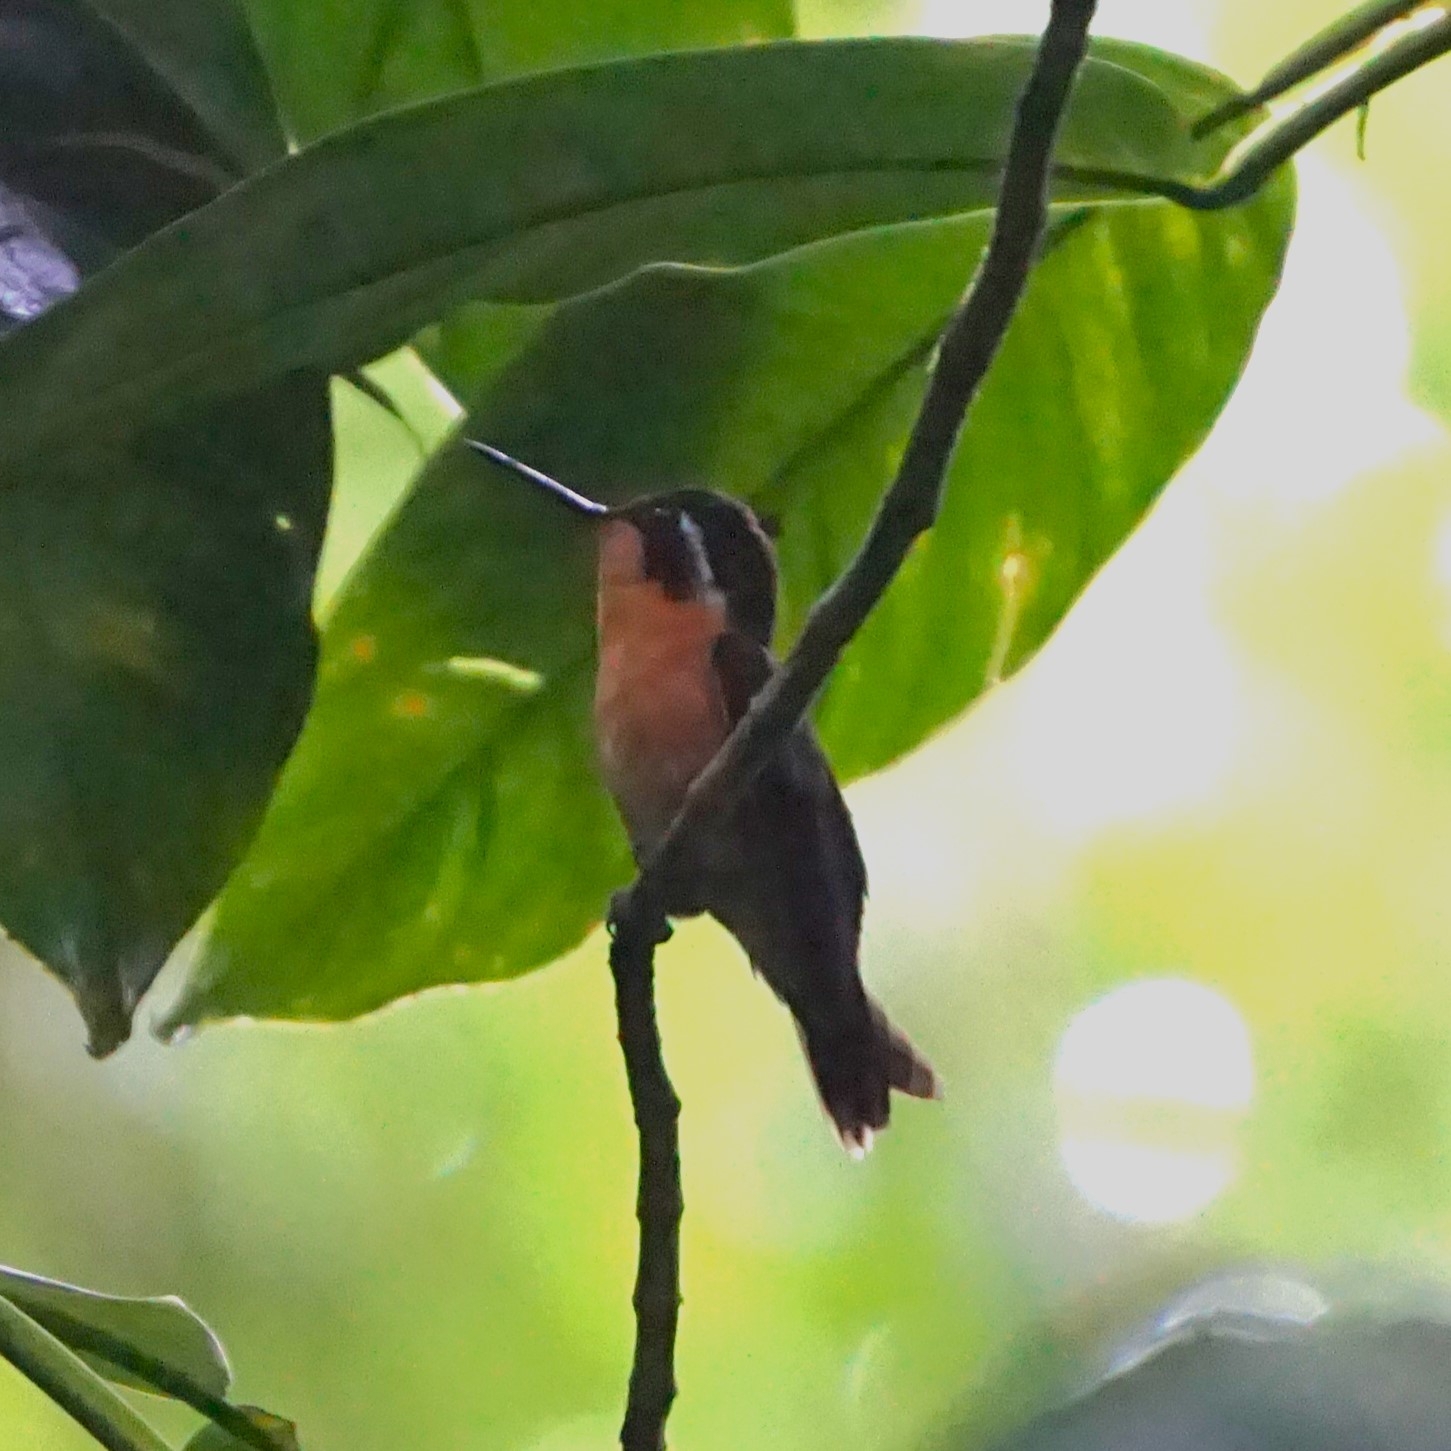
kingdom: Animalia
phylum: Chordata
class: Aves
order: Apodiformes
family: Trochilidae
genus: Lampornis
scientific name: Lampornis calolaemus
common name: Purple-throated mountain-gem
